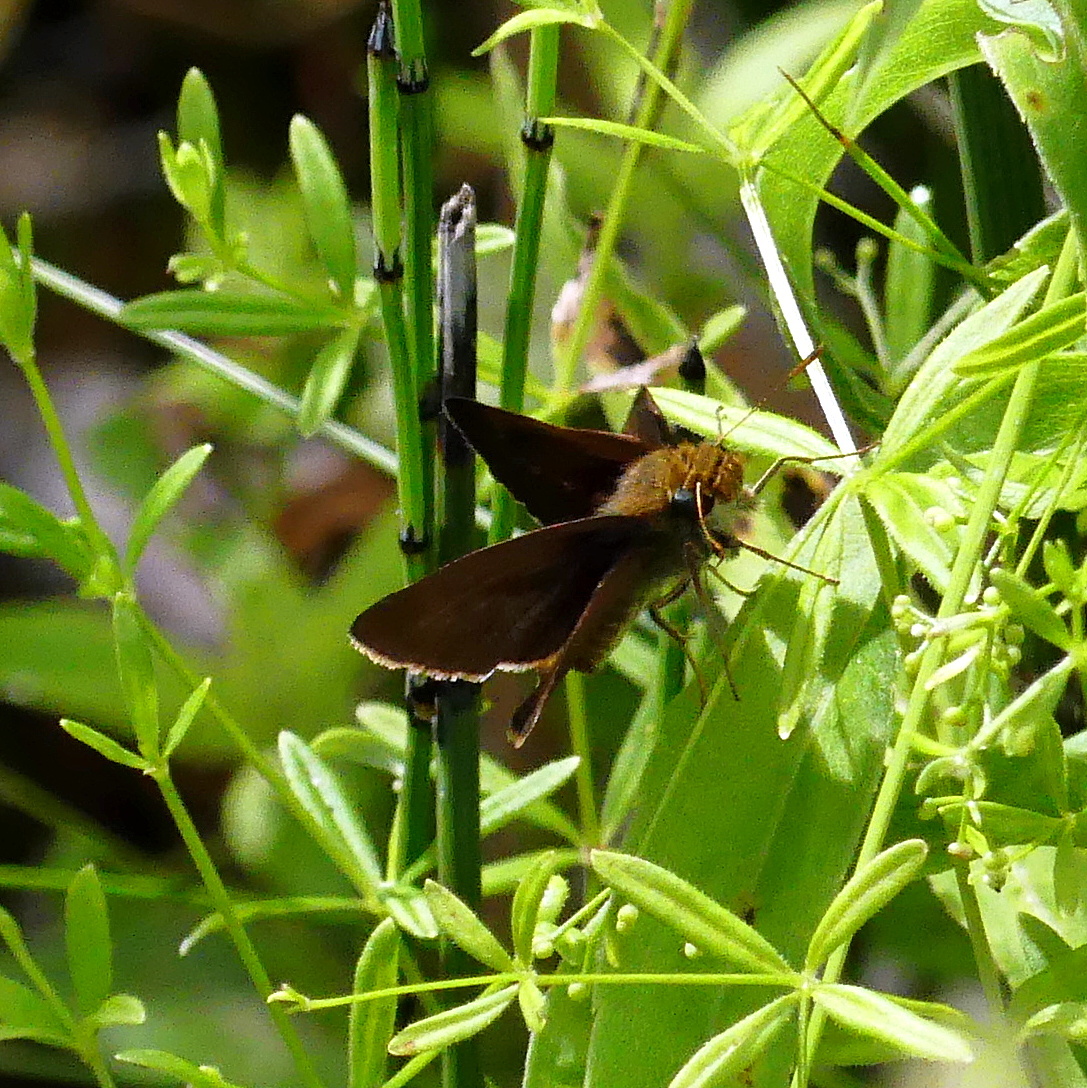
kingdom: Animalia
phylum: Arthropoda
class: Insecta
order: Lepidoptera
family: Hesperiidae
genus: Euphyes
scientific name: Euphyes vestris
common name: Dun skipper
